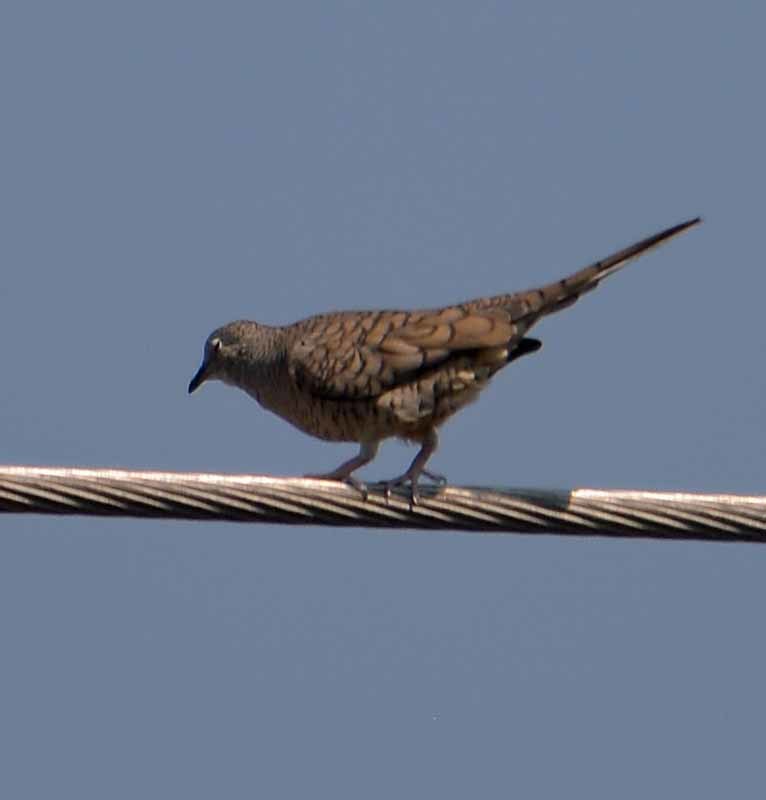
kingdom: Animalia
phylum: Chordata
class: Aves
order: Columbiformes
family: Columbidae
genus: Columbina
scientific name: Columbina inca
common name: Inca dove
